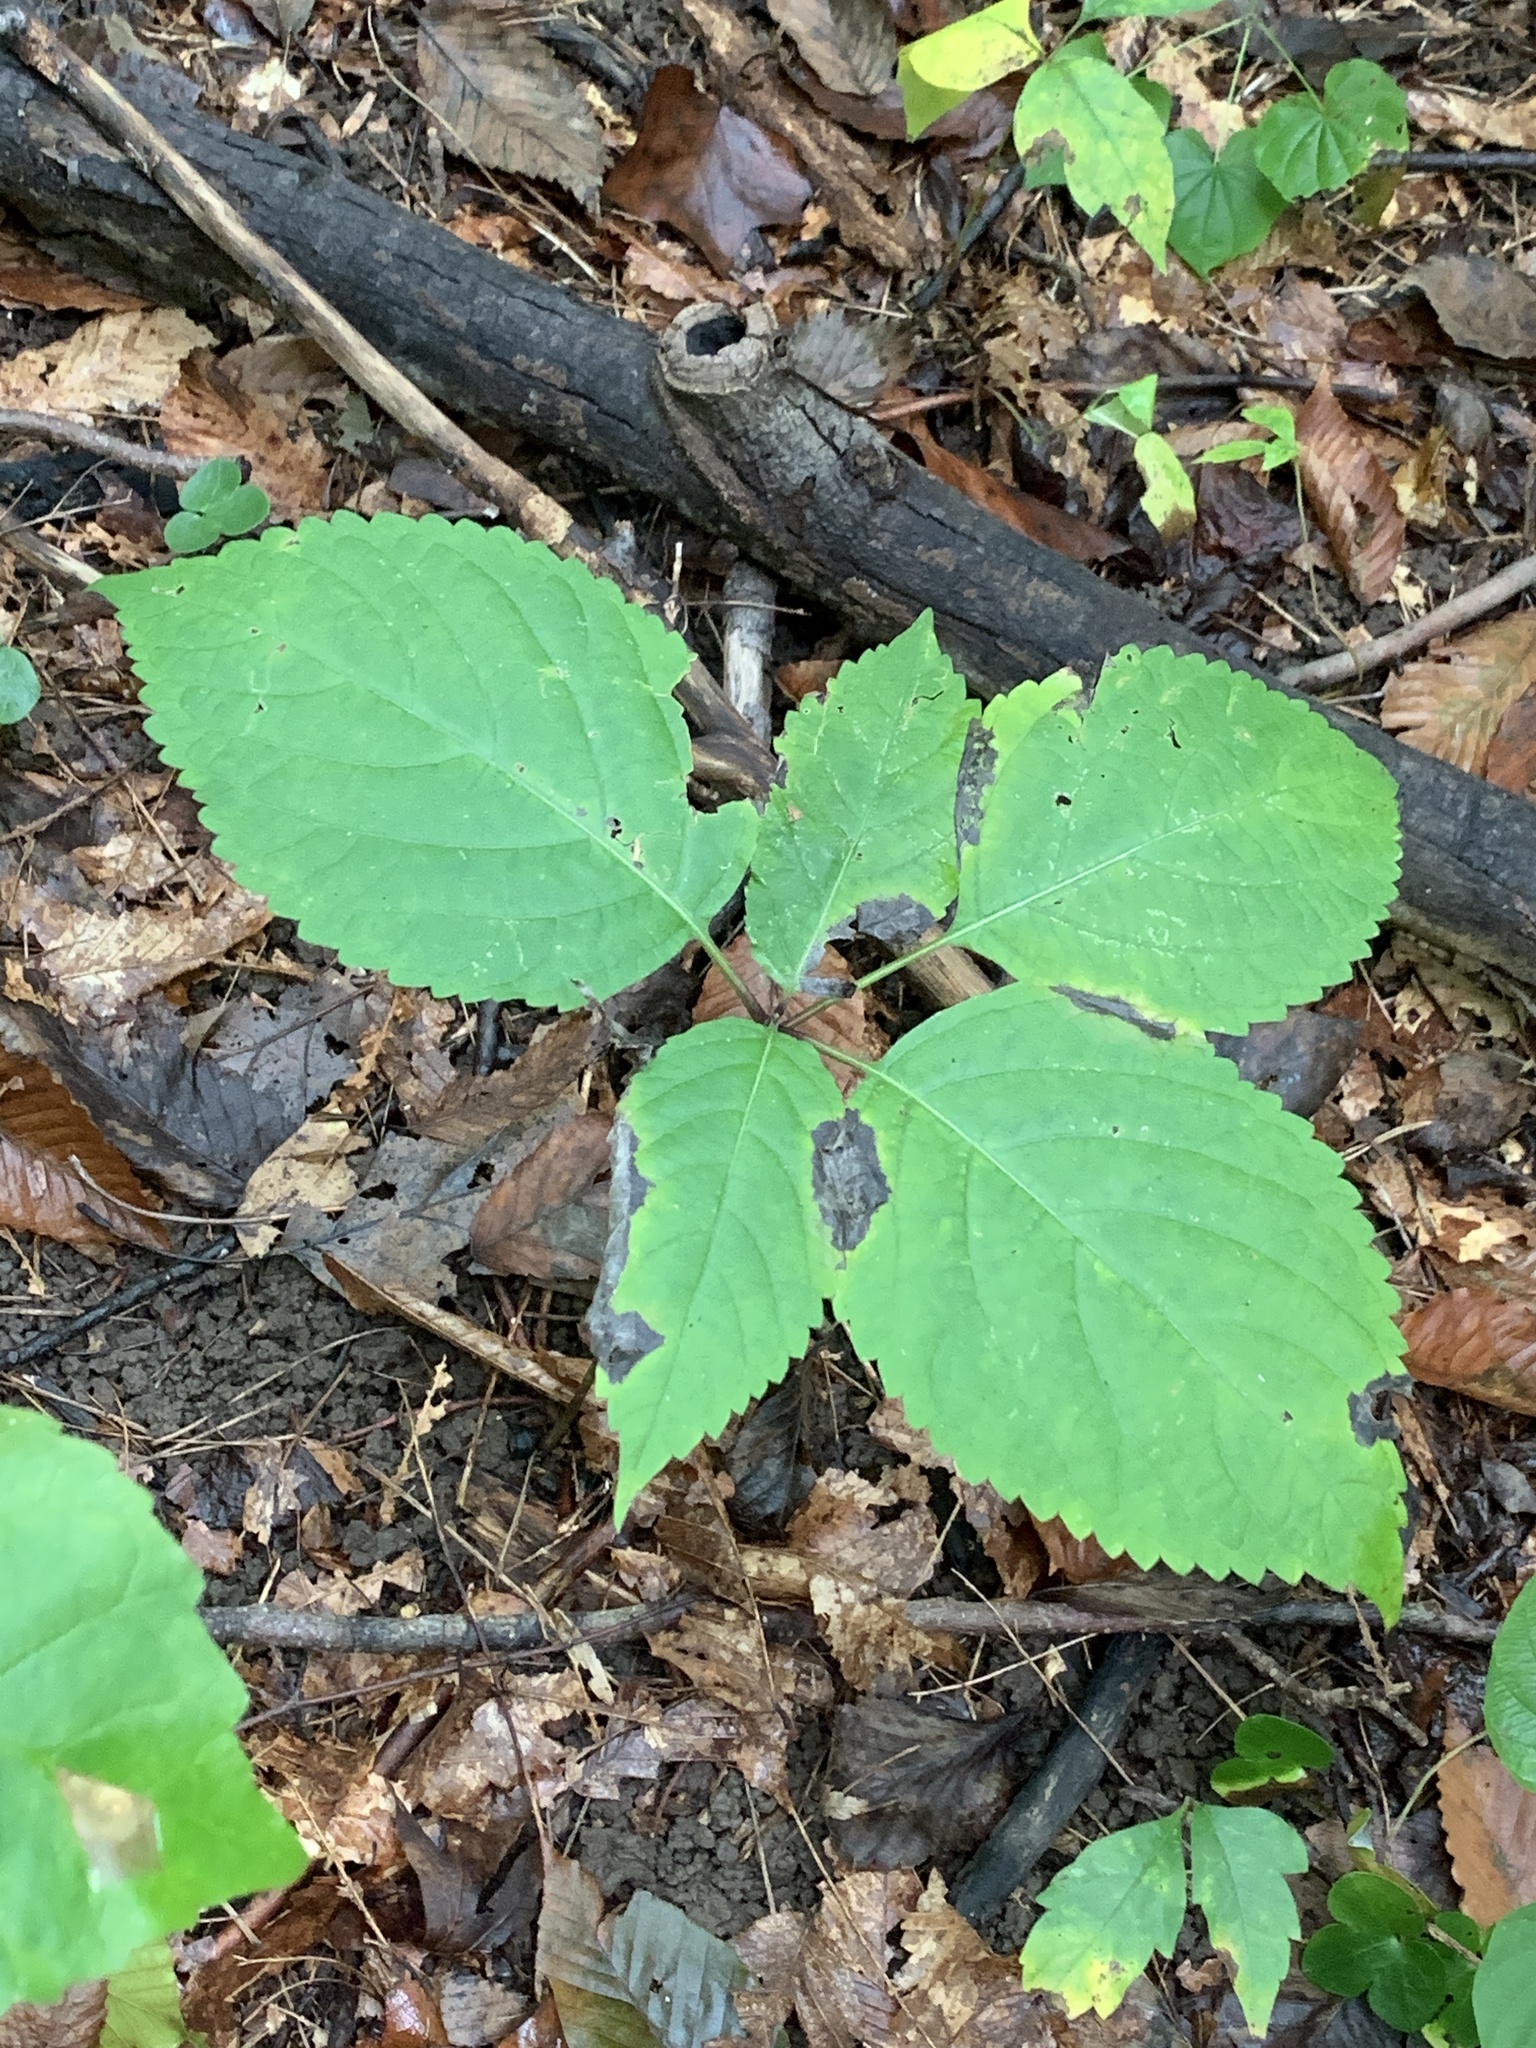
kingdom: Plantae
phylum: Tracheophyta
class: Magnoliopsida
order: Lamiales
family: Lamiaceae
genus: Collinsonia
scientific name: Collinsonia canadensis
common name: Northern horsebalm
